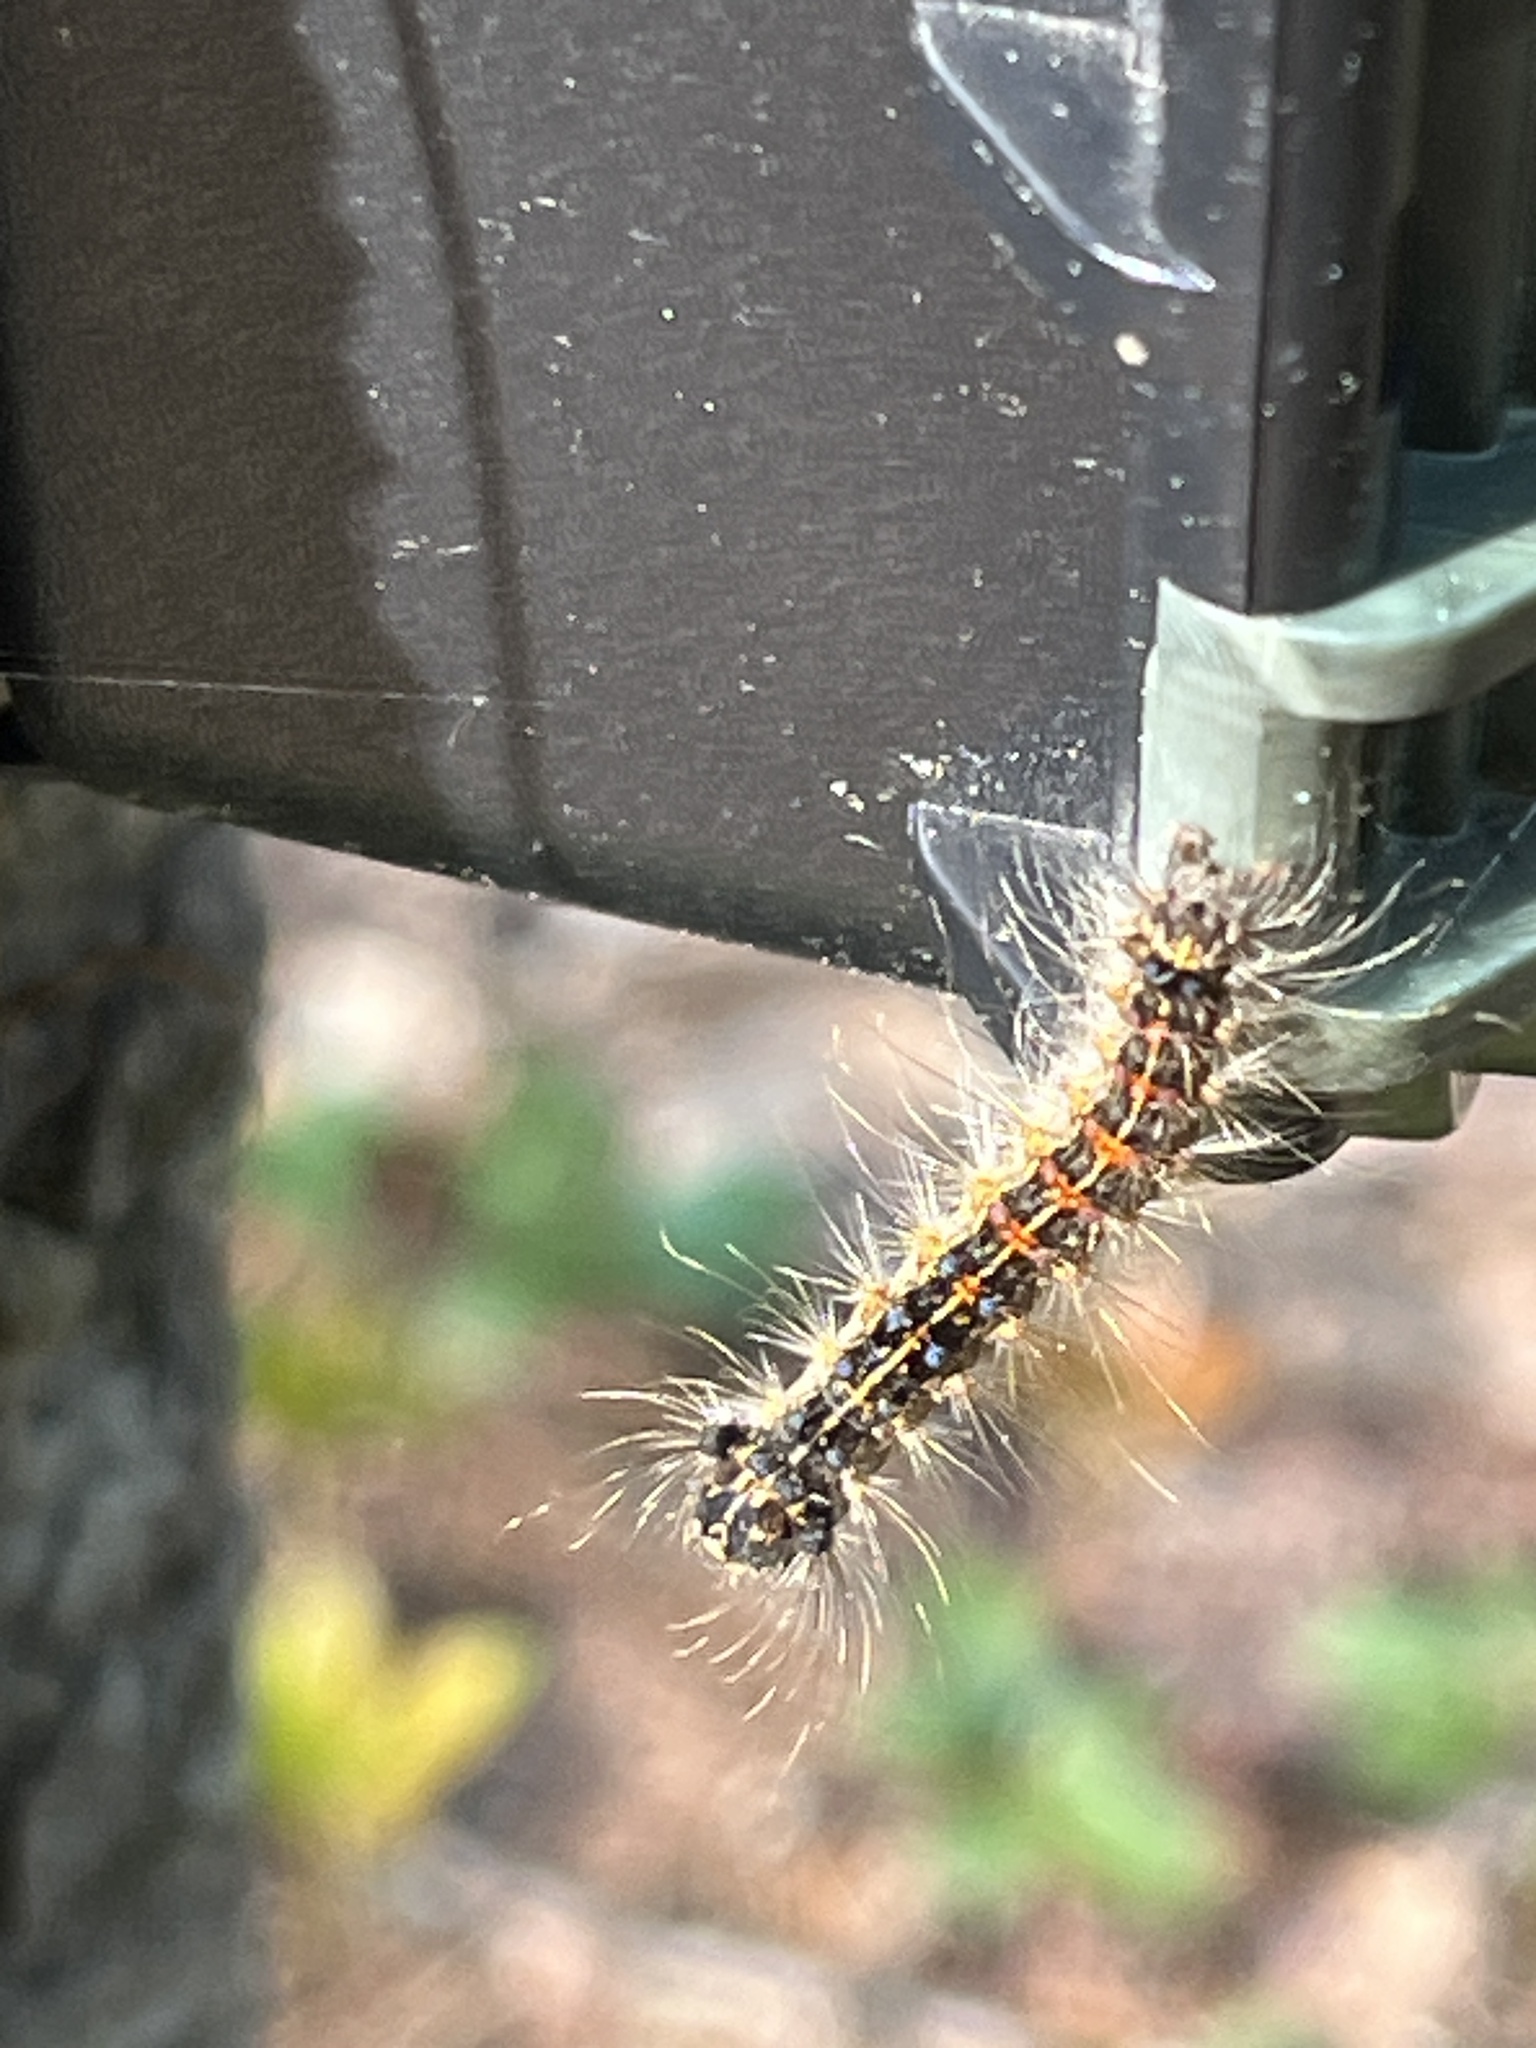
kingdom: Animalia
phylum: Arthropoda
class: Insecta
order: Lepidoptera
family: Erebidae
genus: Lymantria
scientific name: Lymantria dispar
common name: Gypsy moth
